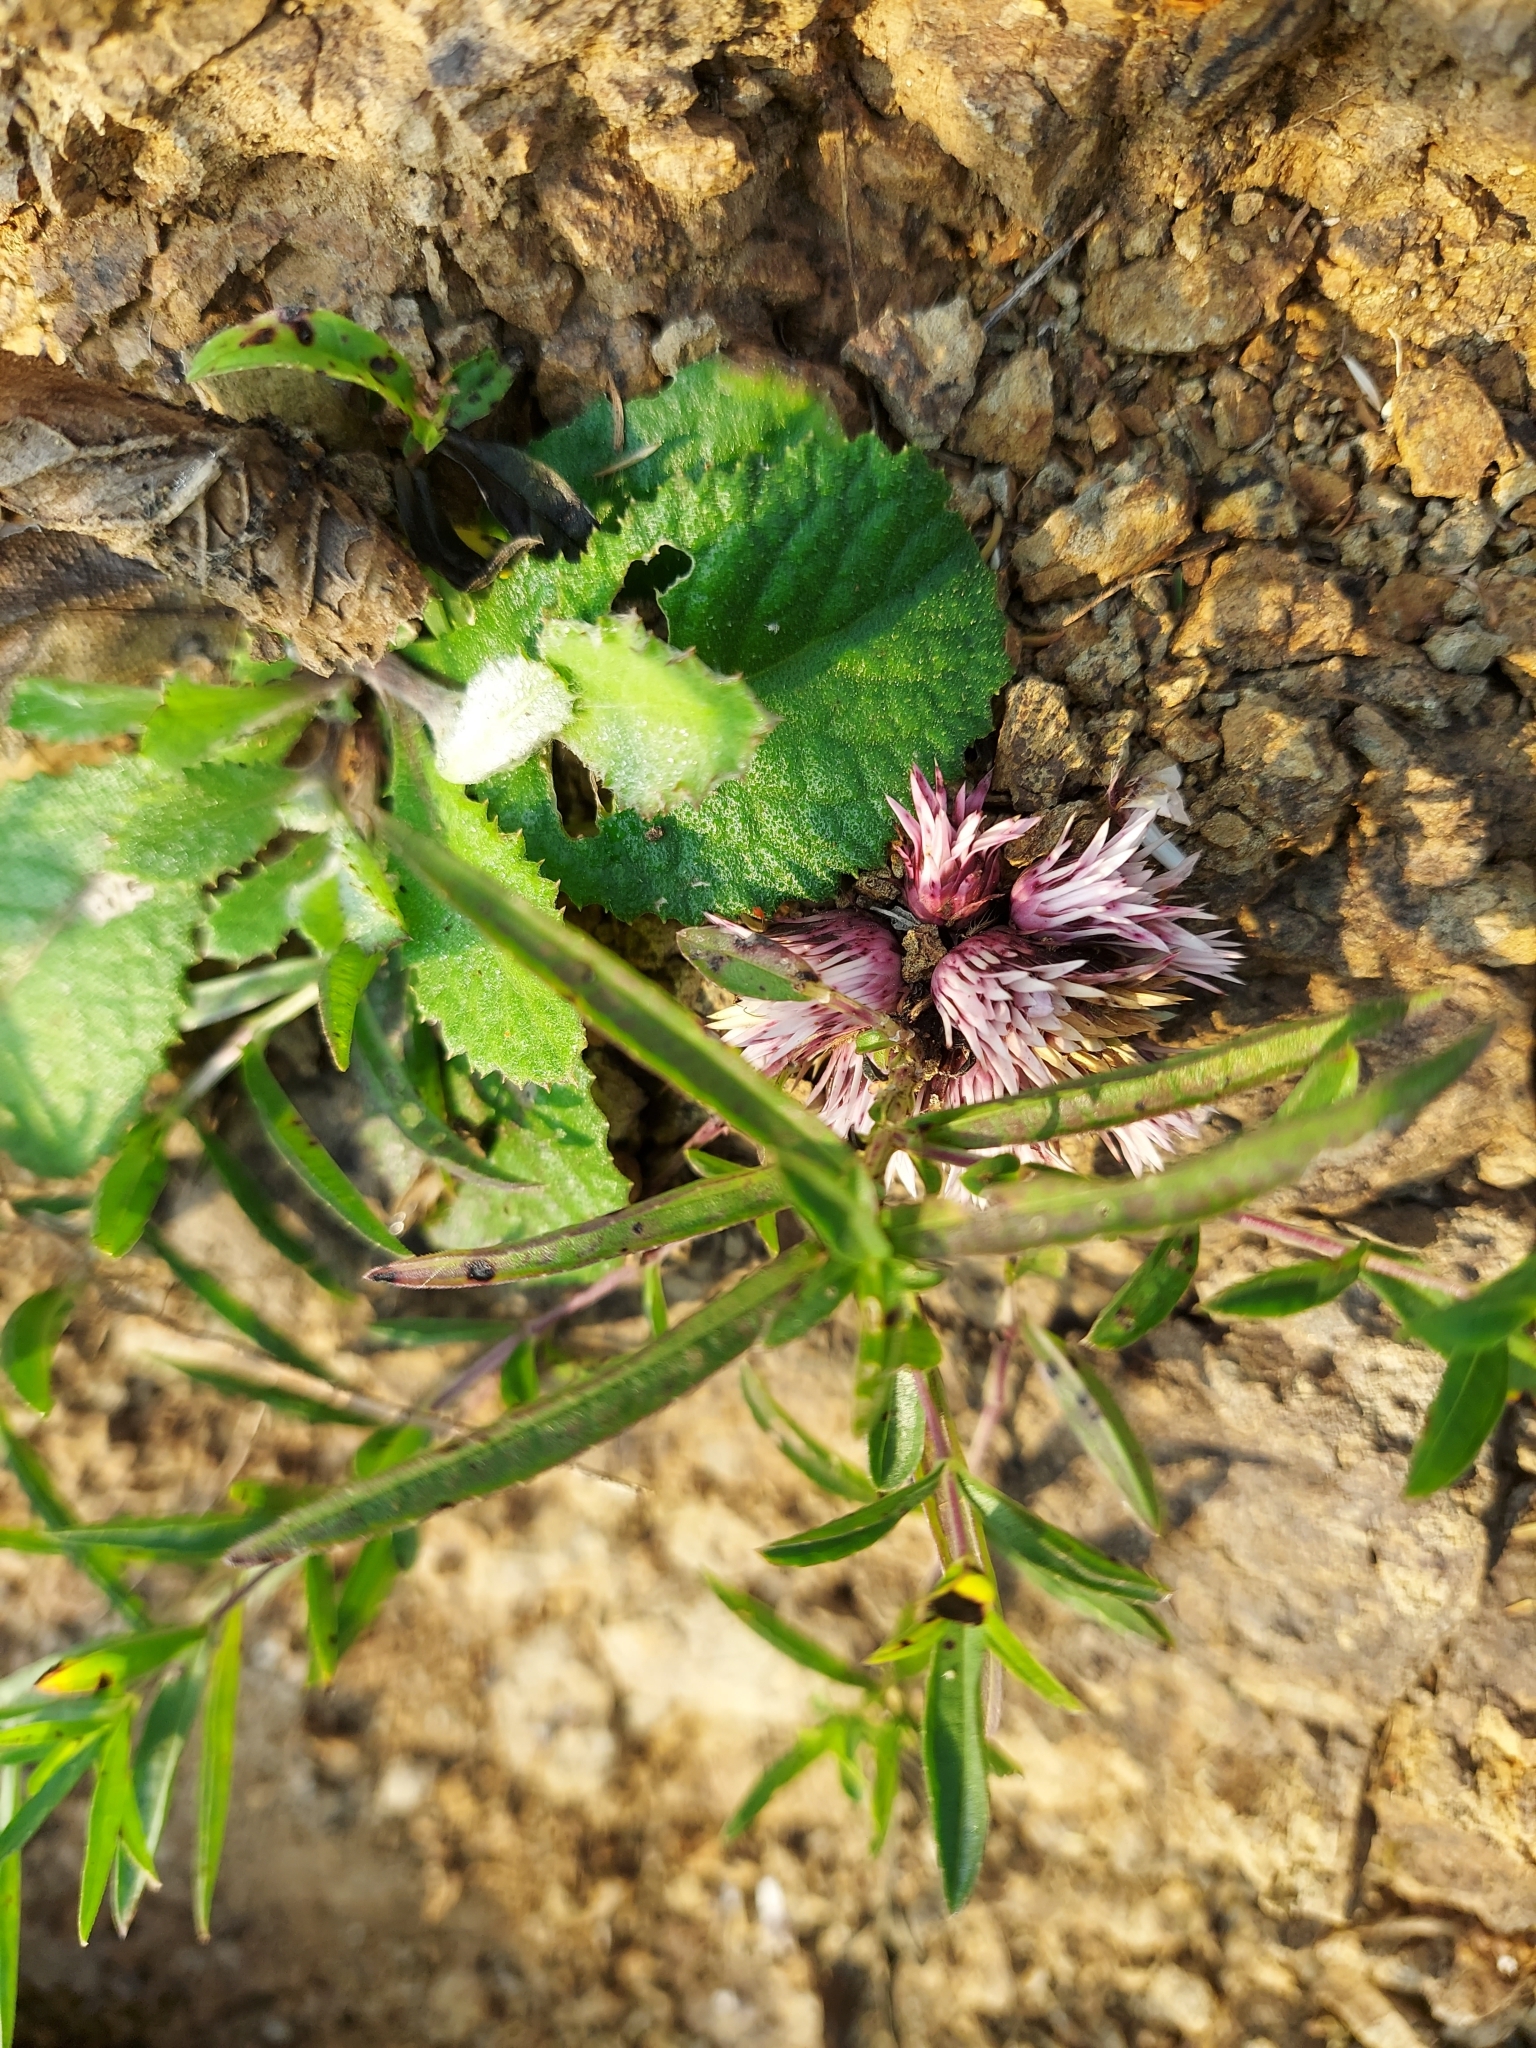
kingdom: Plantae
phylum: Tracheophyta
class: Magnoliopsida
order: Lamiales
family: Acanthaceae
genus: Lepidagathis
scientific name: Lepidagathis trinervis
